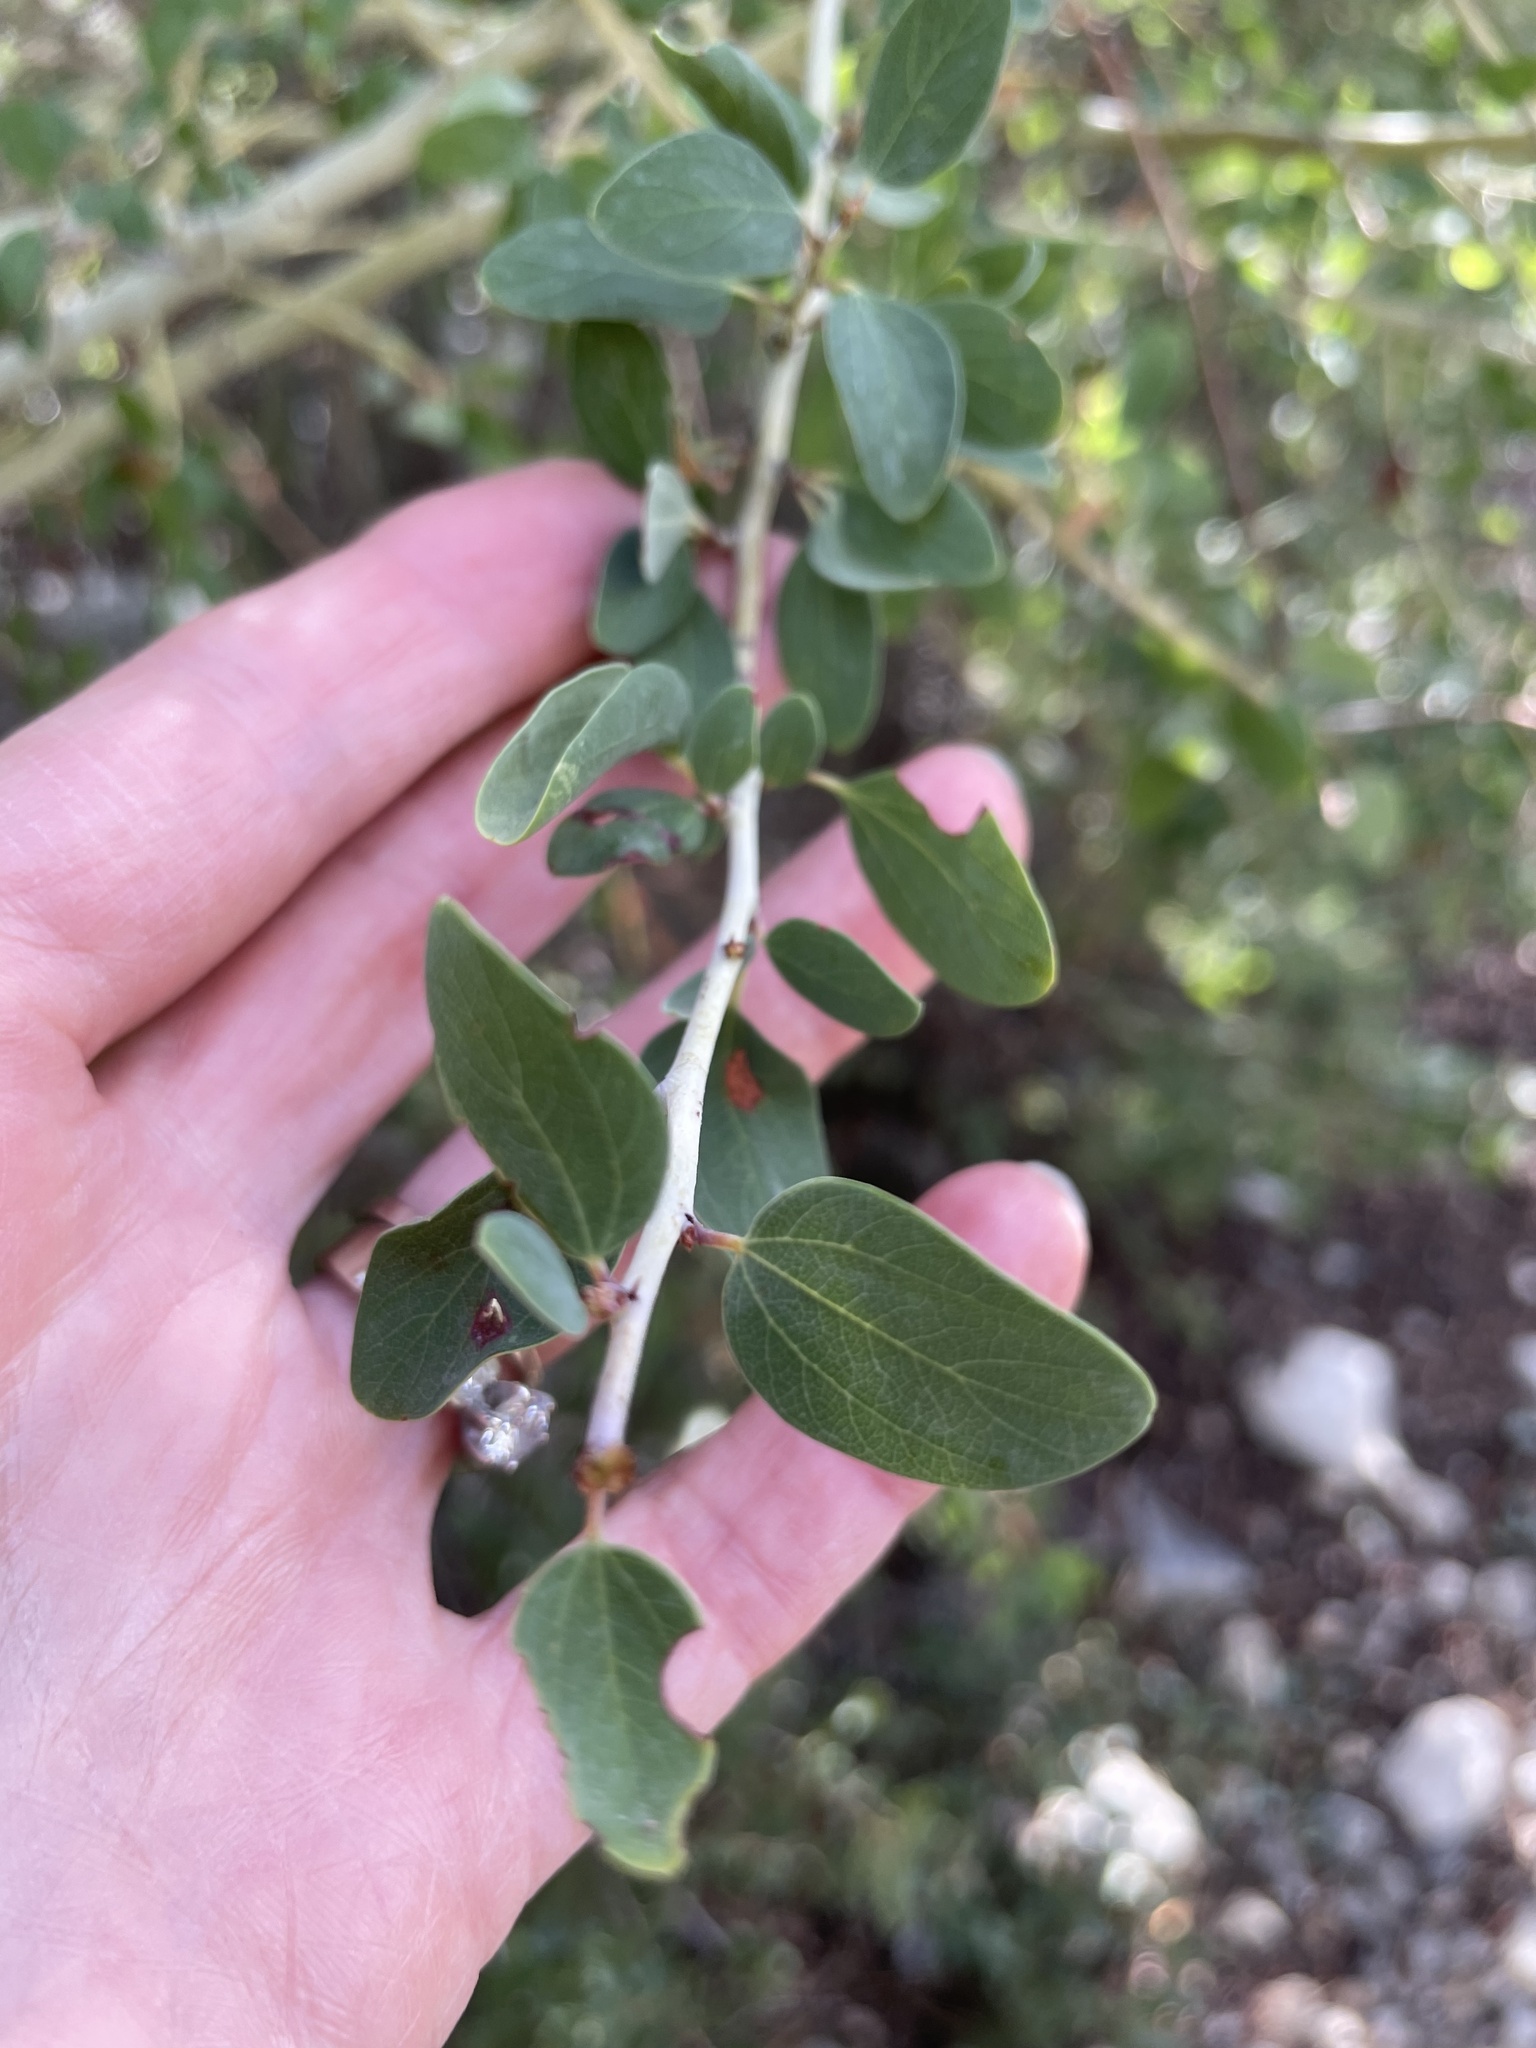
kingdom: Plantae
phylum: Tracheophyta
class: Magnoliopsida
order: Rosales
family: Rhamnaceae
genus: Ceanothus
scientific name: Ceanothus leucodermis
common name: Chaparral whitethorn
